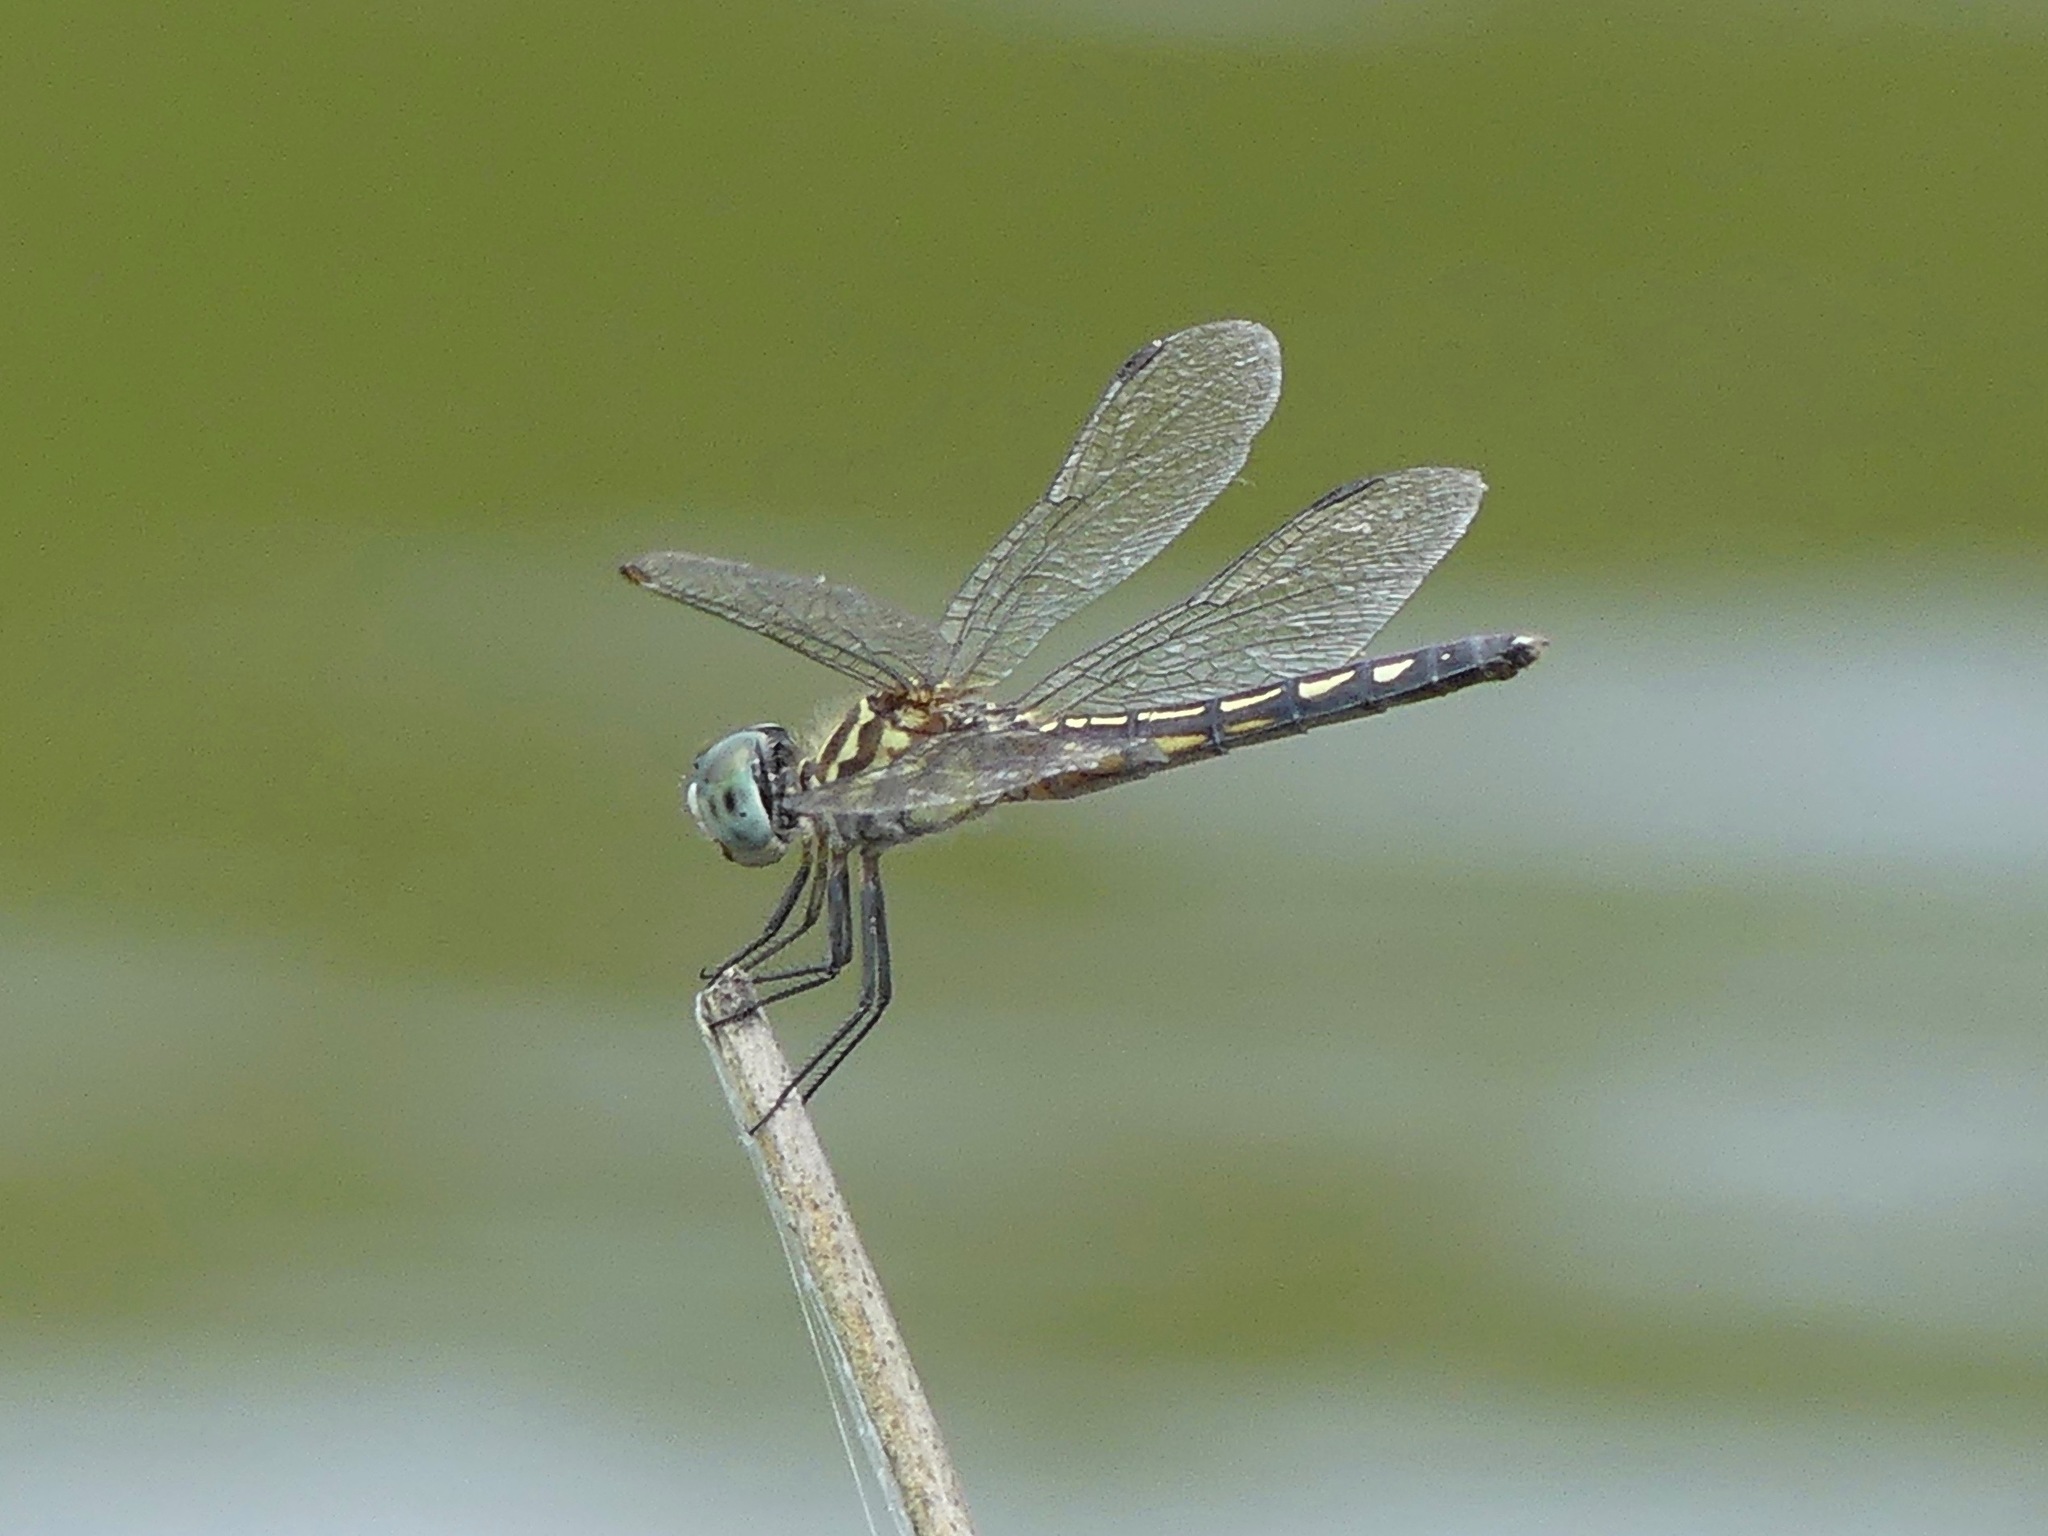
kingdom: Animalia
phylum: Arthropoda
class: Insecta
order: Odonata
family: Libellulidae
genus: Pachydiplax
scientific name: Pachydiplax longipennis
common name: Blue dasher
